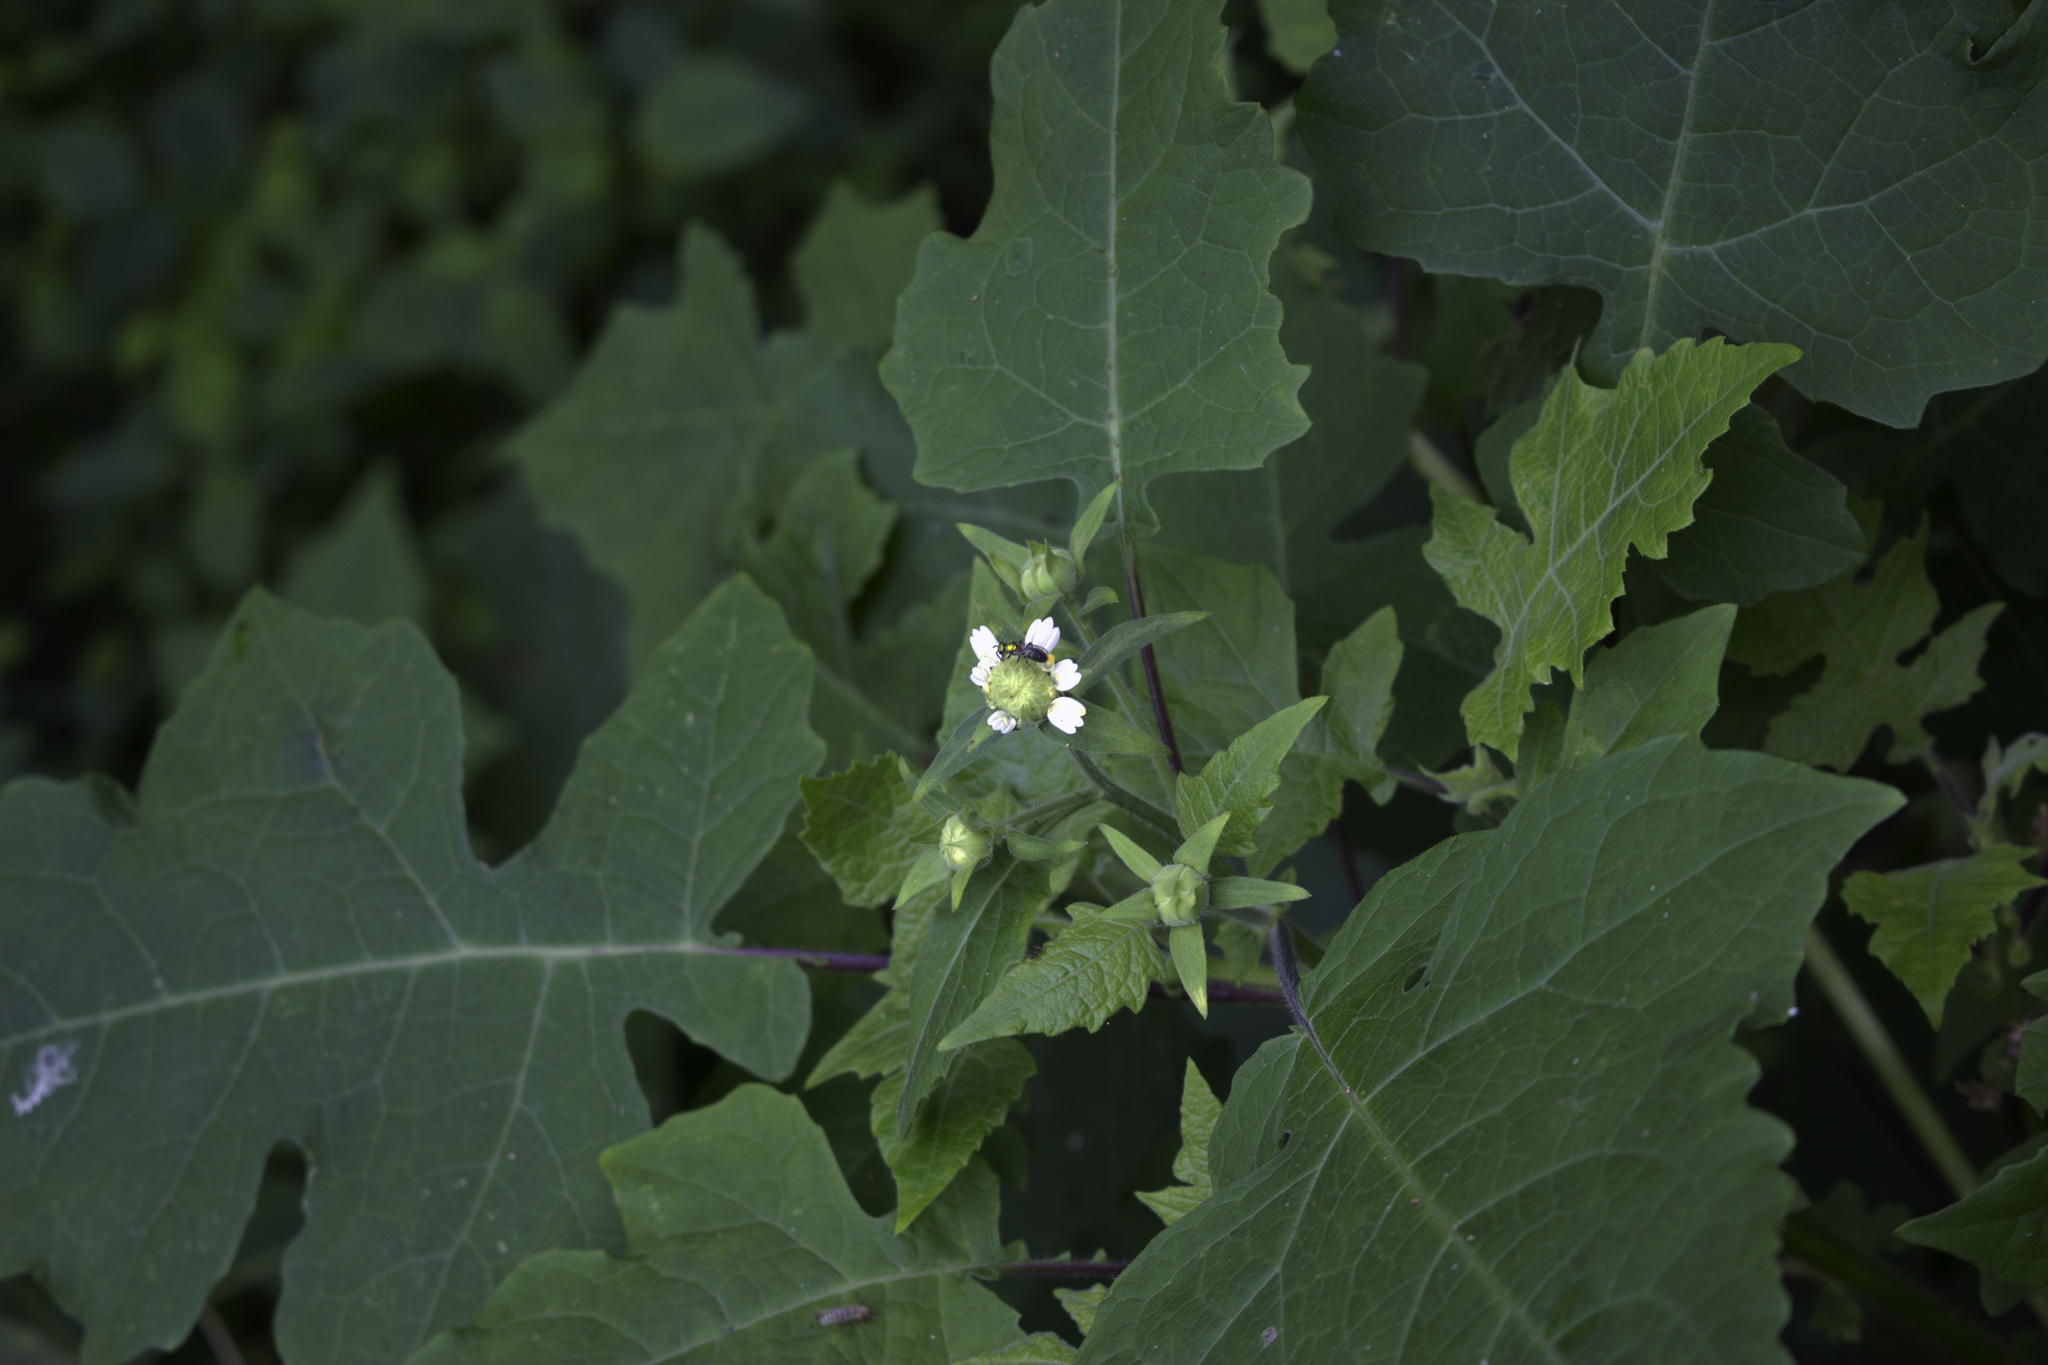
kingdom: Plantae
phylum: Tracheophyta
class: Magnoliopsida
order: Asterales
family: Asteraceae
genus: Polymnia
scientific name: Polymnia canadensis
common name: Pale-flowered leafcup
